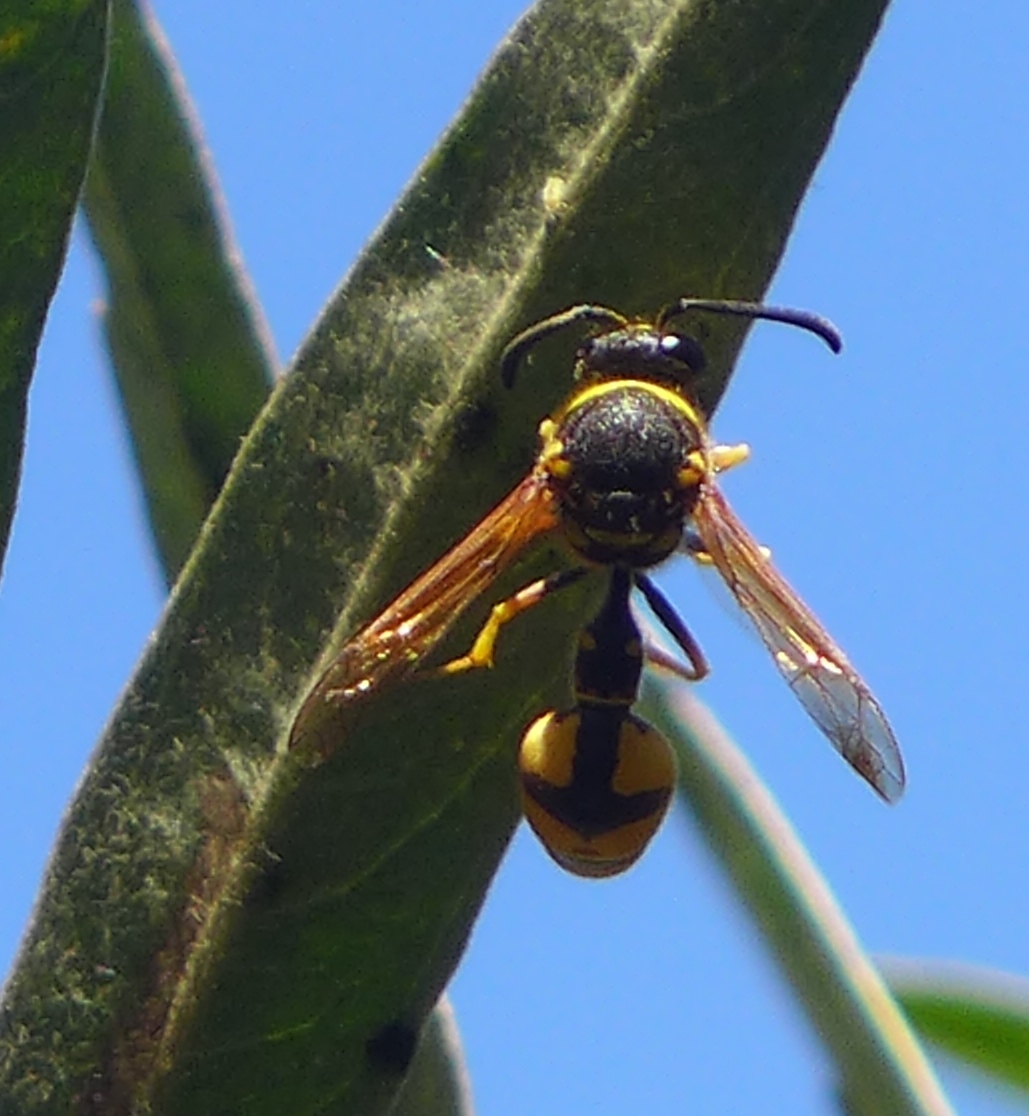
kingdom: Animalia
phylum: Arthropoda
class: Insecta
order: Hymenoptera
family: Vespidae
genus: Eumenes
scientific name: Eumenes crucifera
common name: Cross potter wasp
